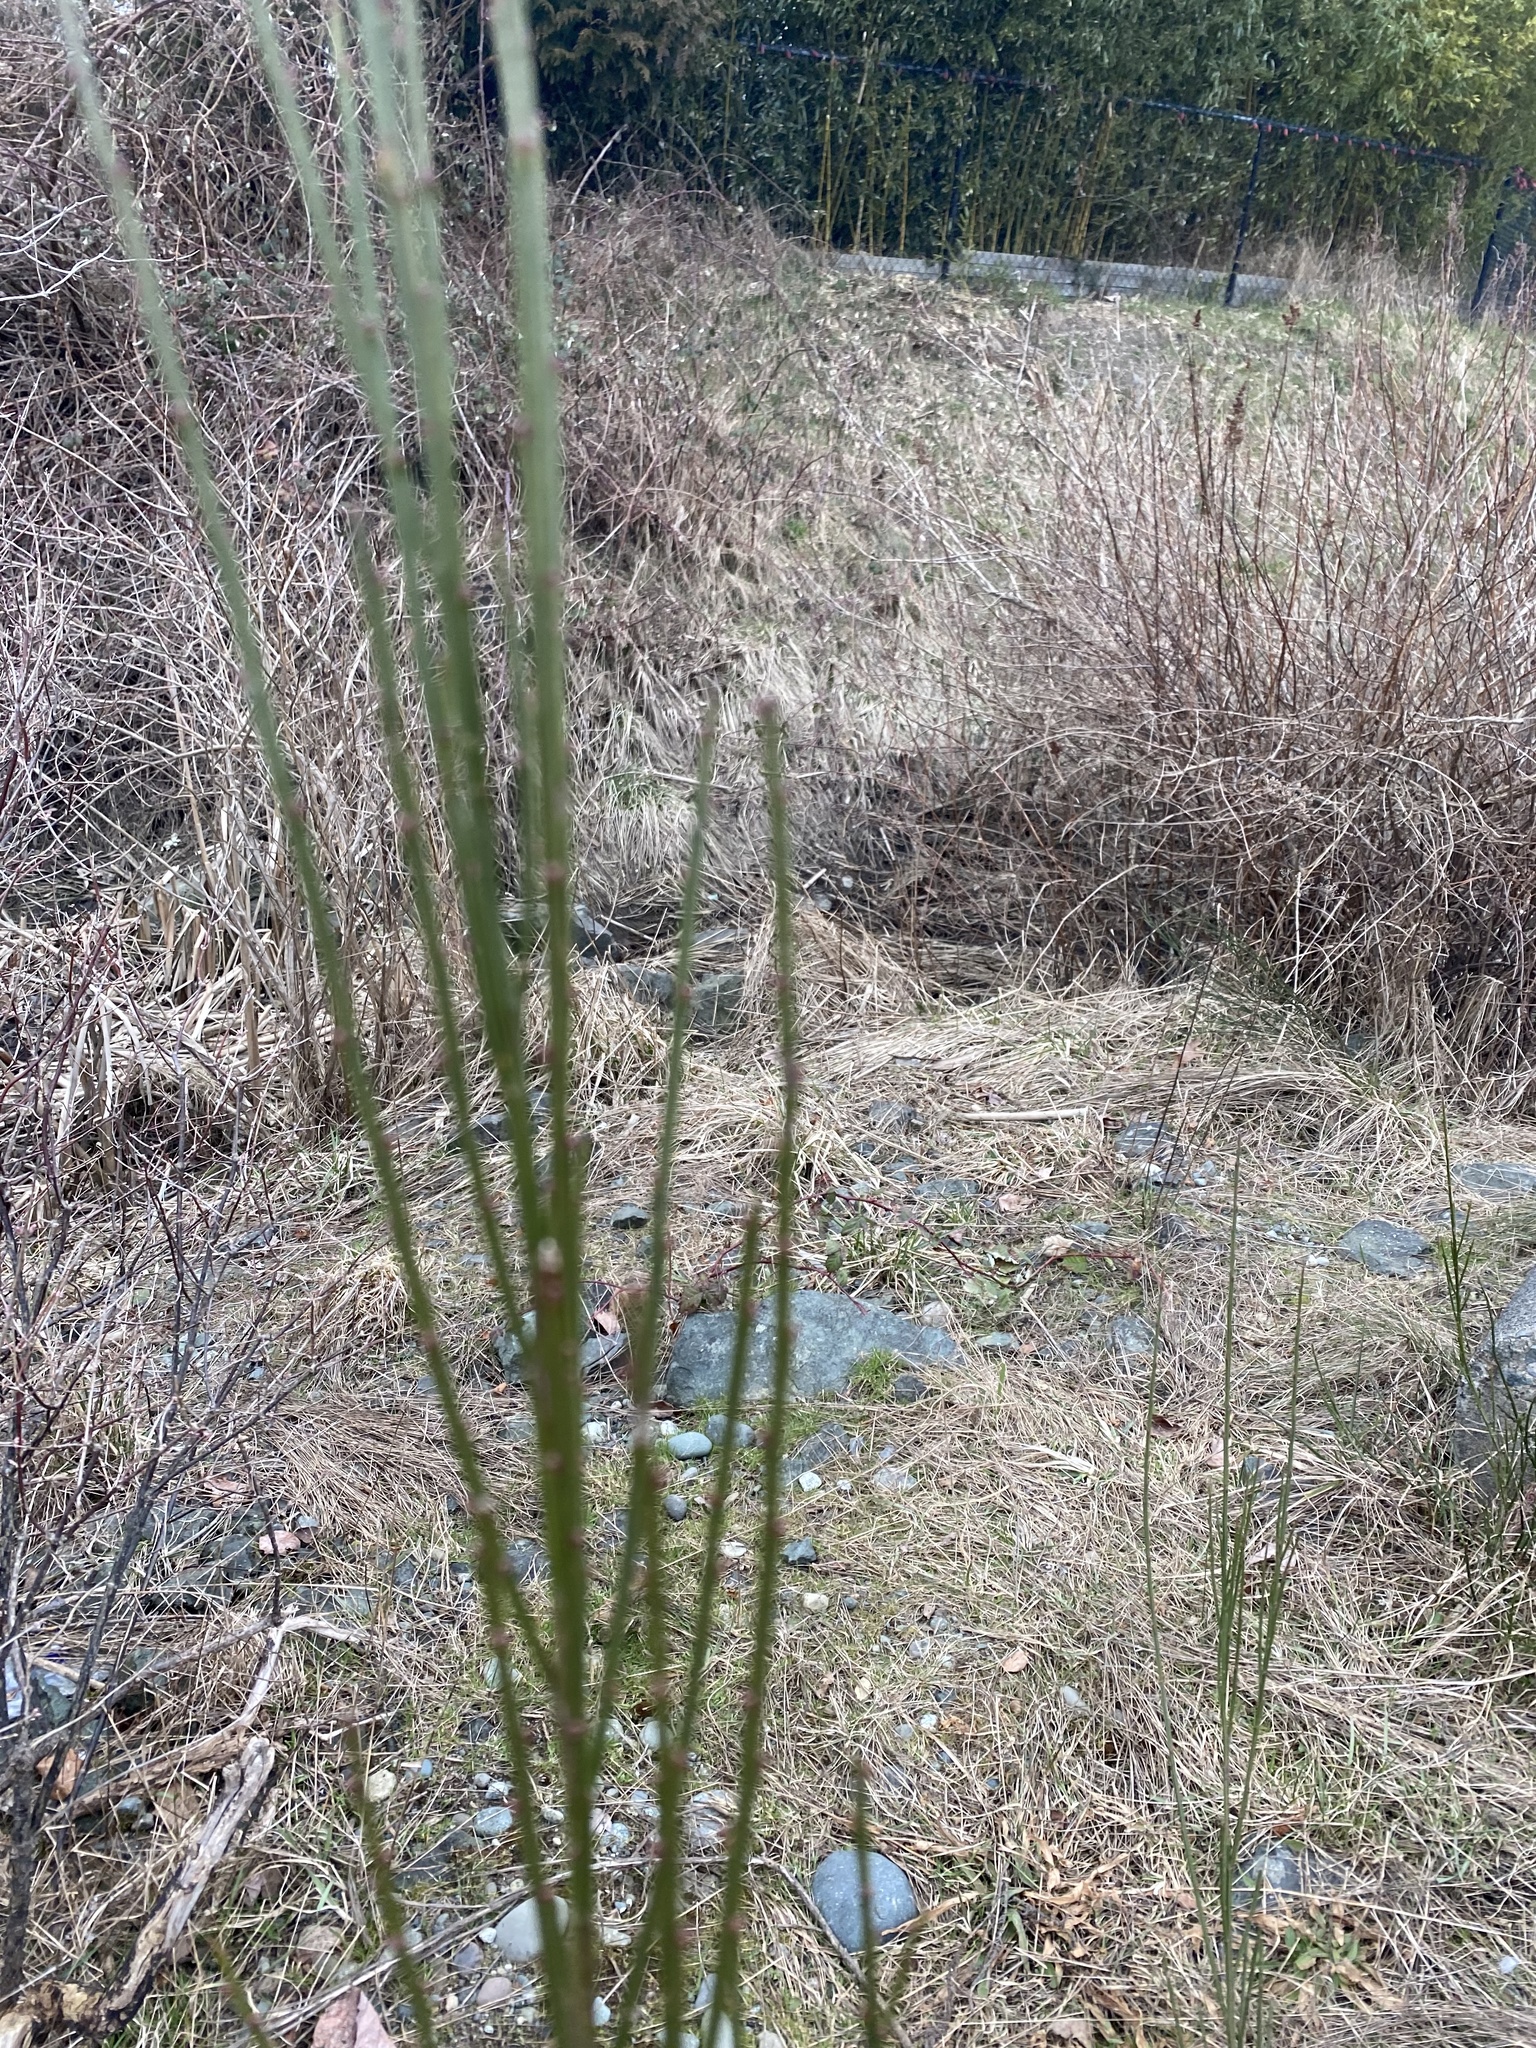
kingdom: Plantae
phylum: Tracheophyta
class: Magnoliopsida
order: Fabales
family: Fabaceae
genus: Cytisus
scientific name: Cytisus scoparius
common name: Scotch broom
